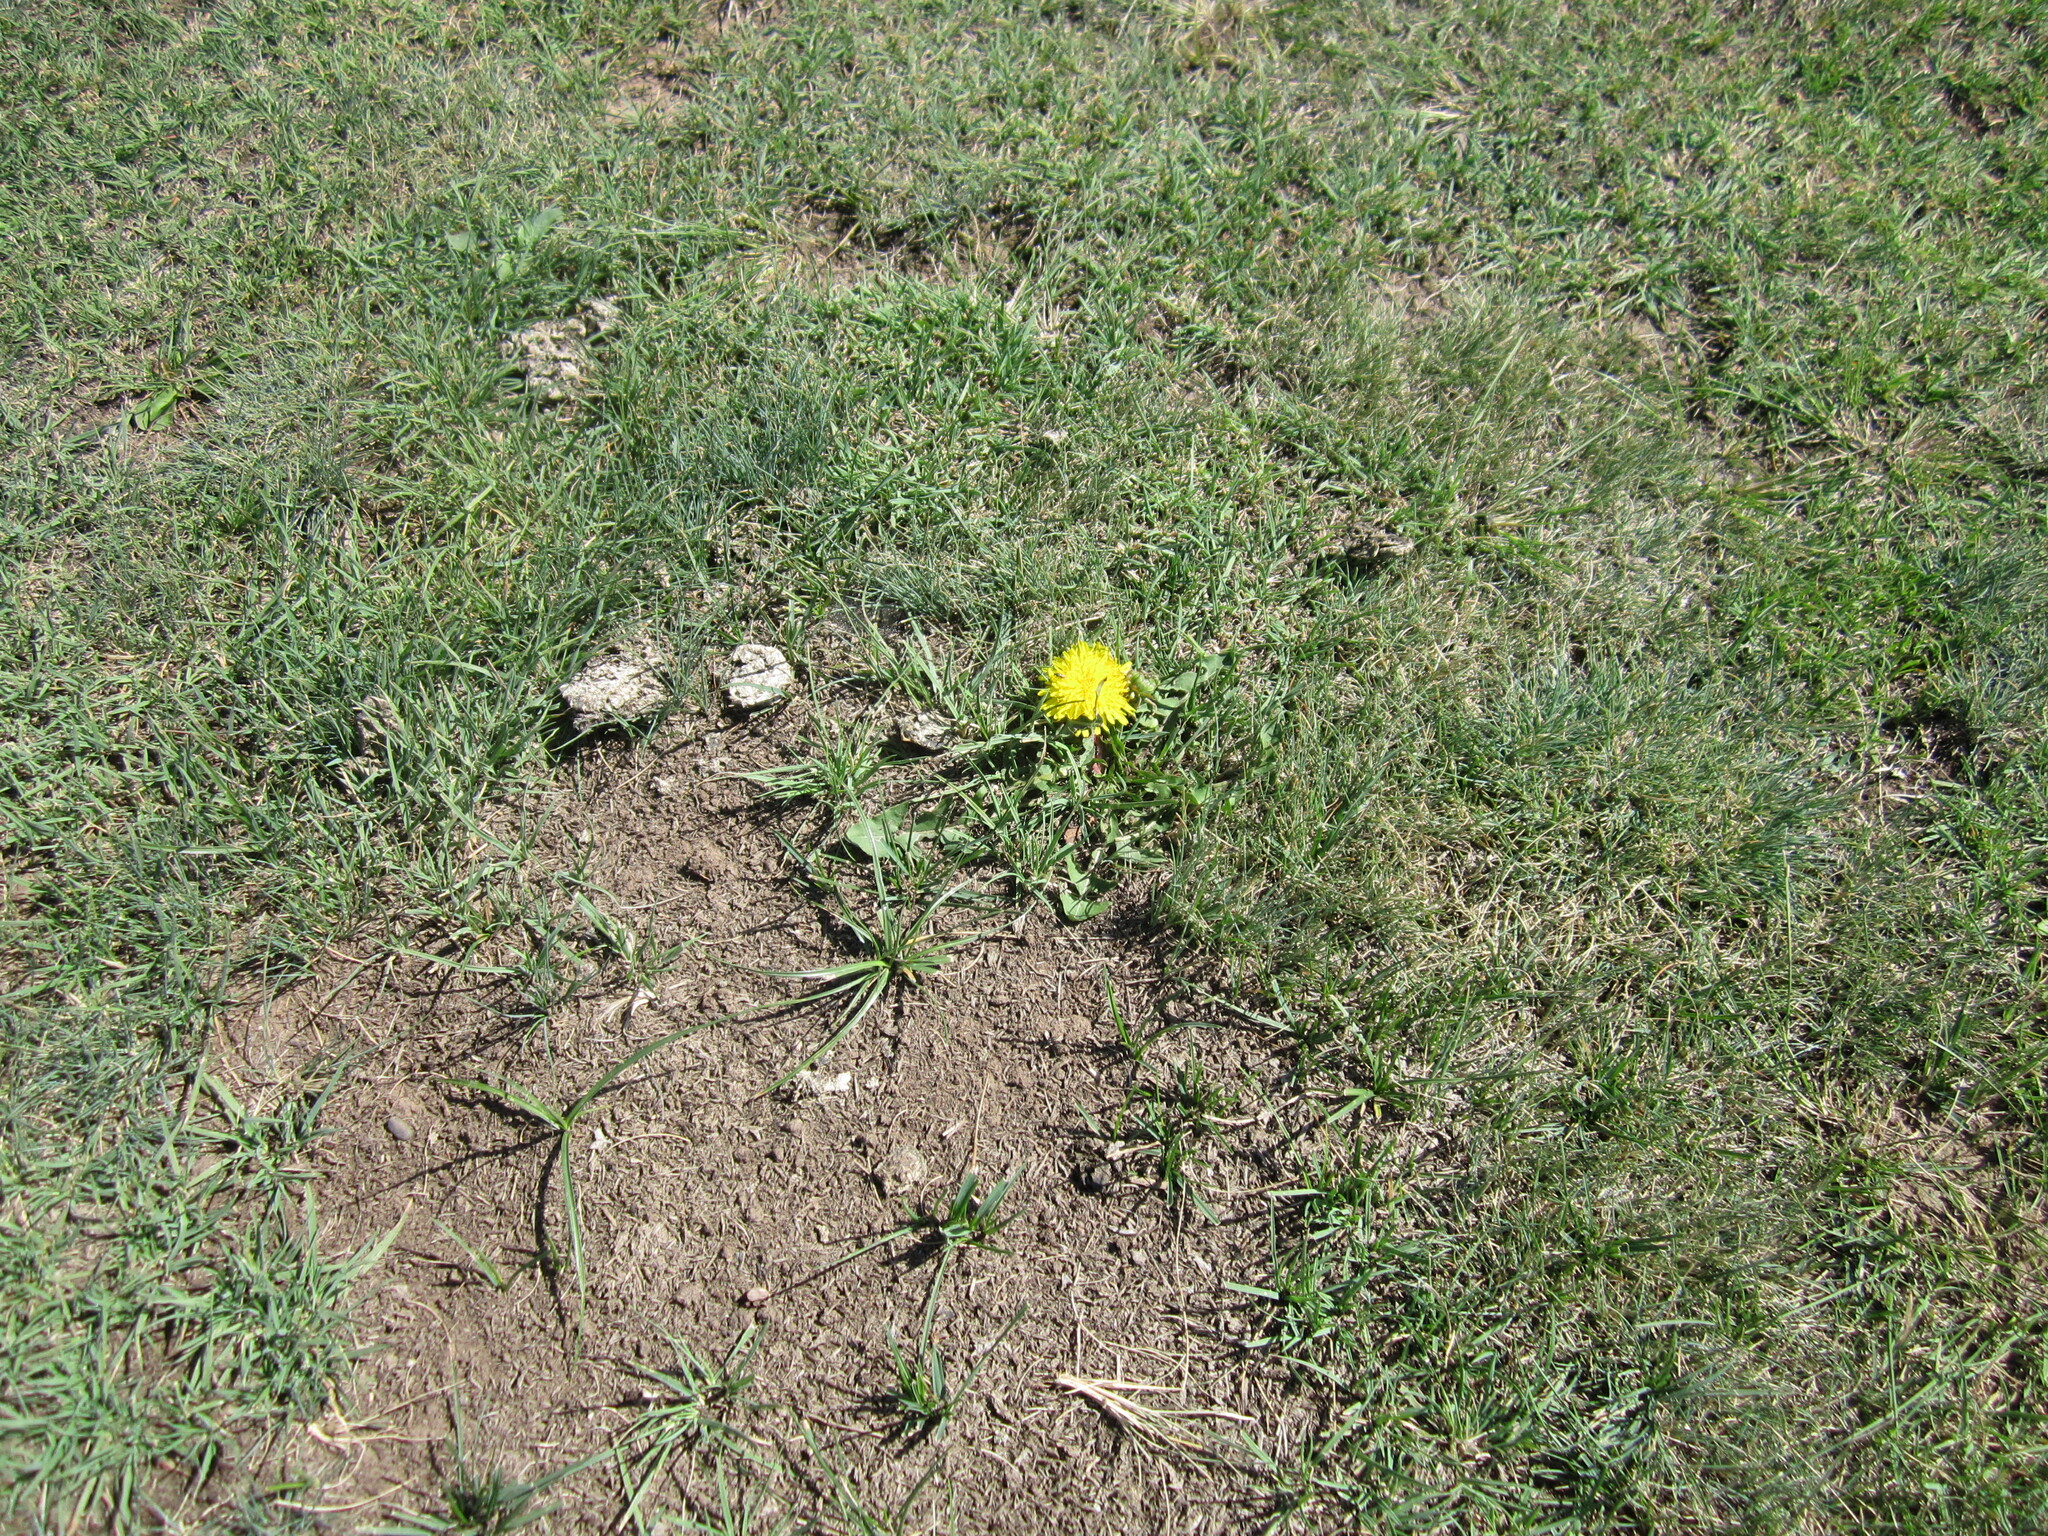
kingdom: Plantae
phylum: Tracheophyta
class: Magnoliopsida
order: Asterales
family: Asteraceae
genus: Taraxacum
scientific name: Taraxacum officinale
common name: Common dandelion
